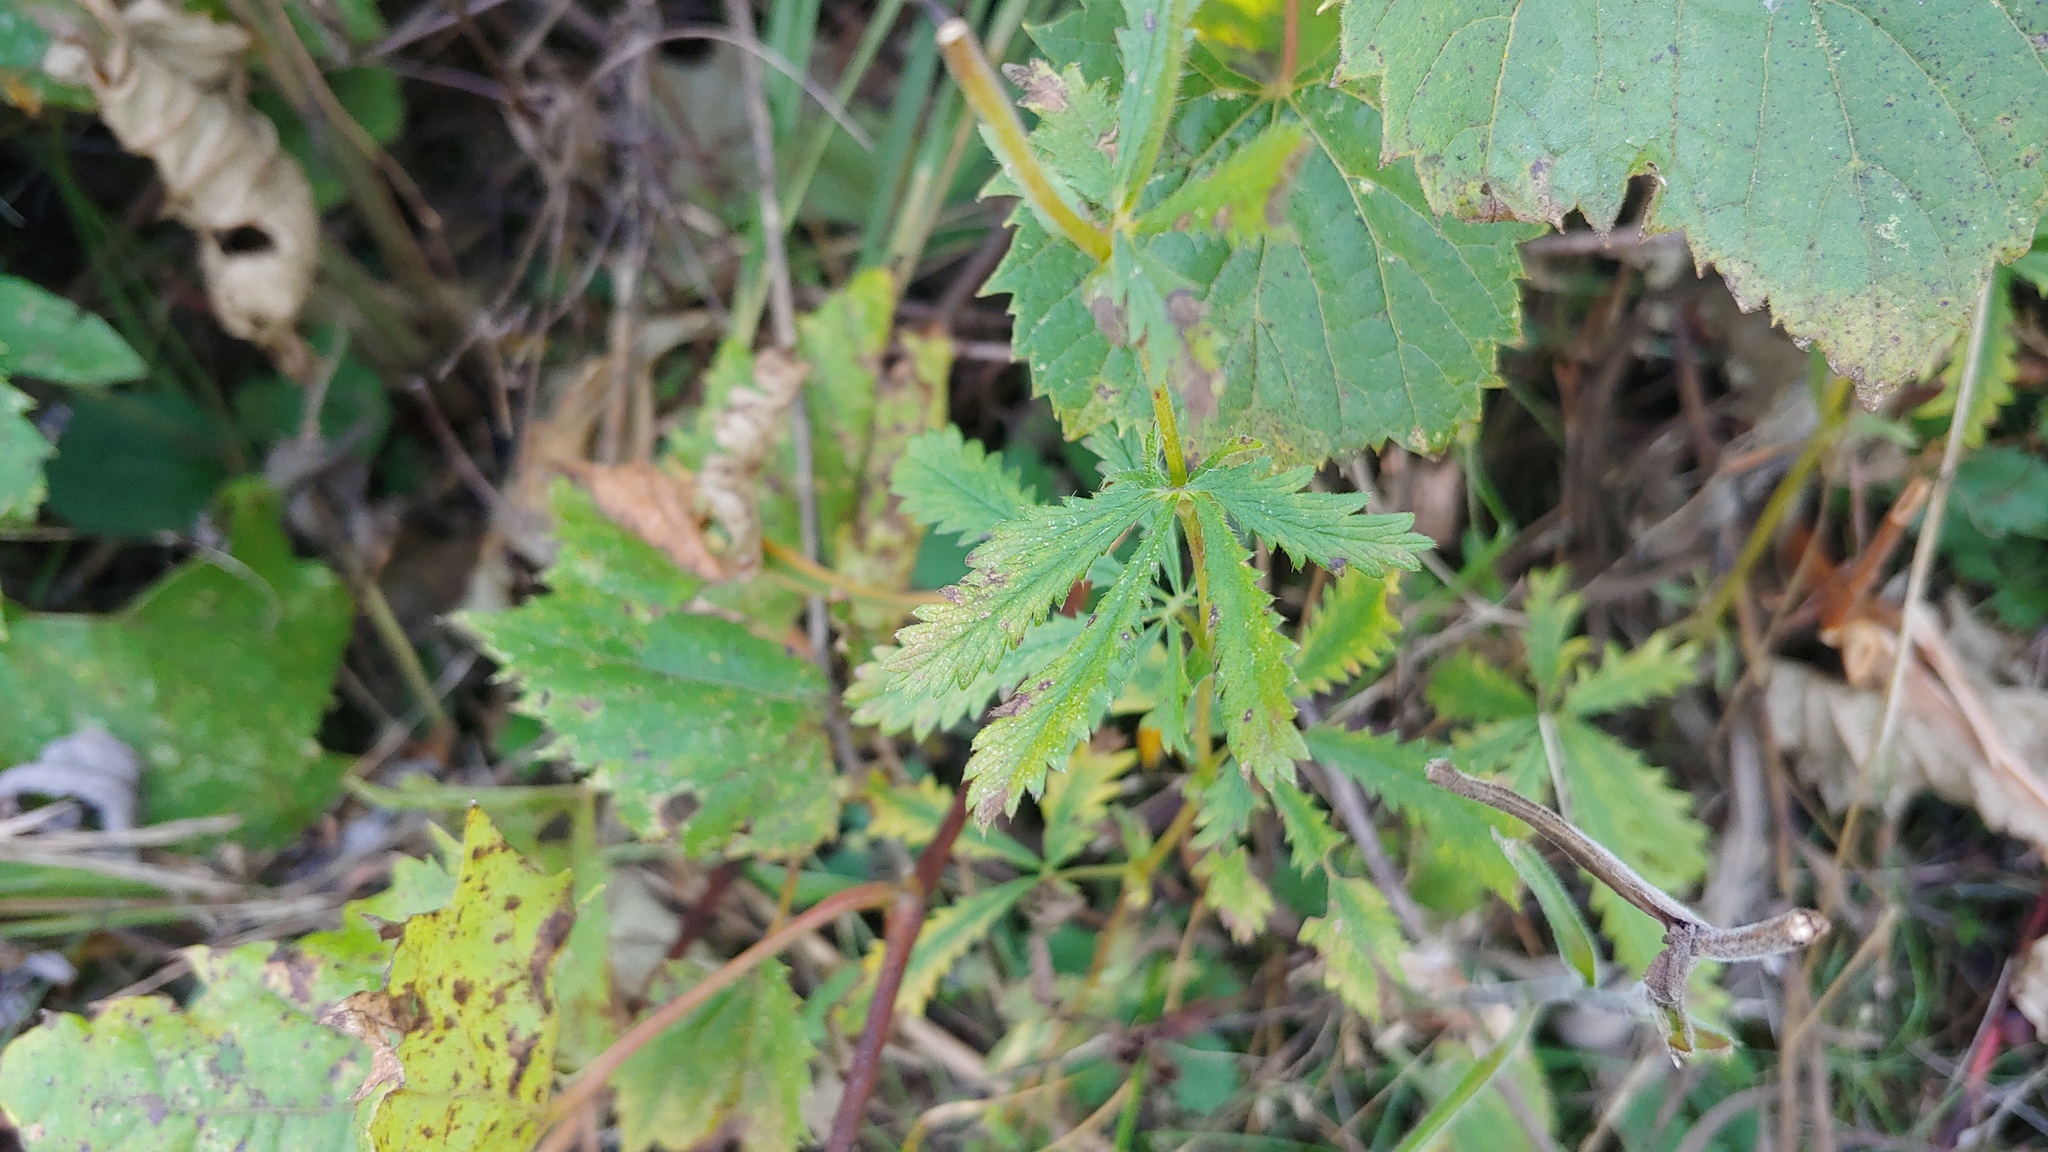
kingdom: Plantae
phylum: Tracheophyta
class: Magnoliopsida
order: Rosales
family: Rosaceae
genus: Potentilla
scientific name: Potentilla recta
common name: Sulphur cinquefoil
